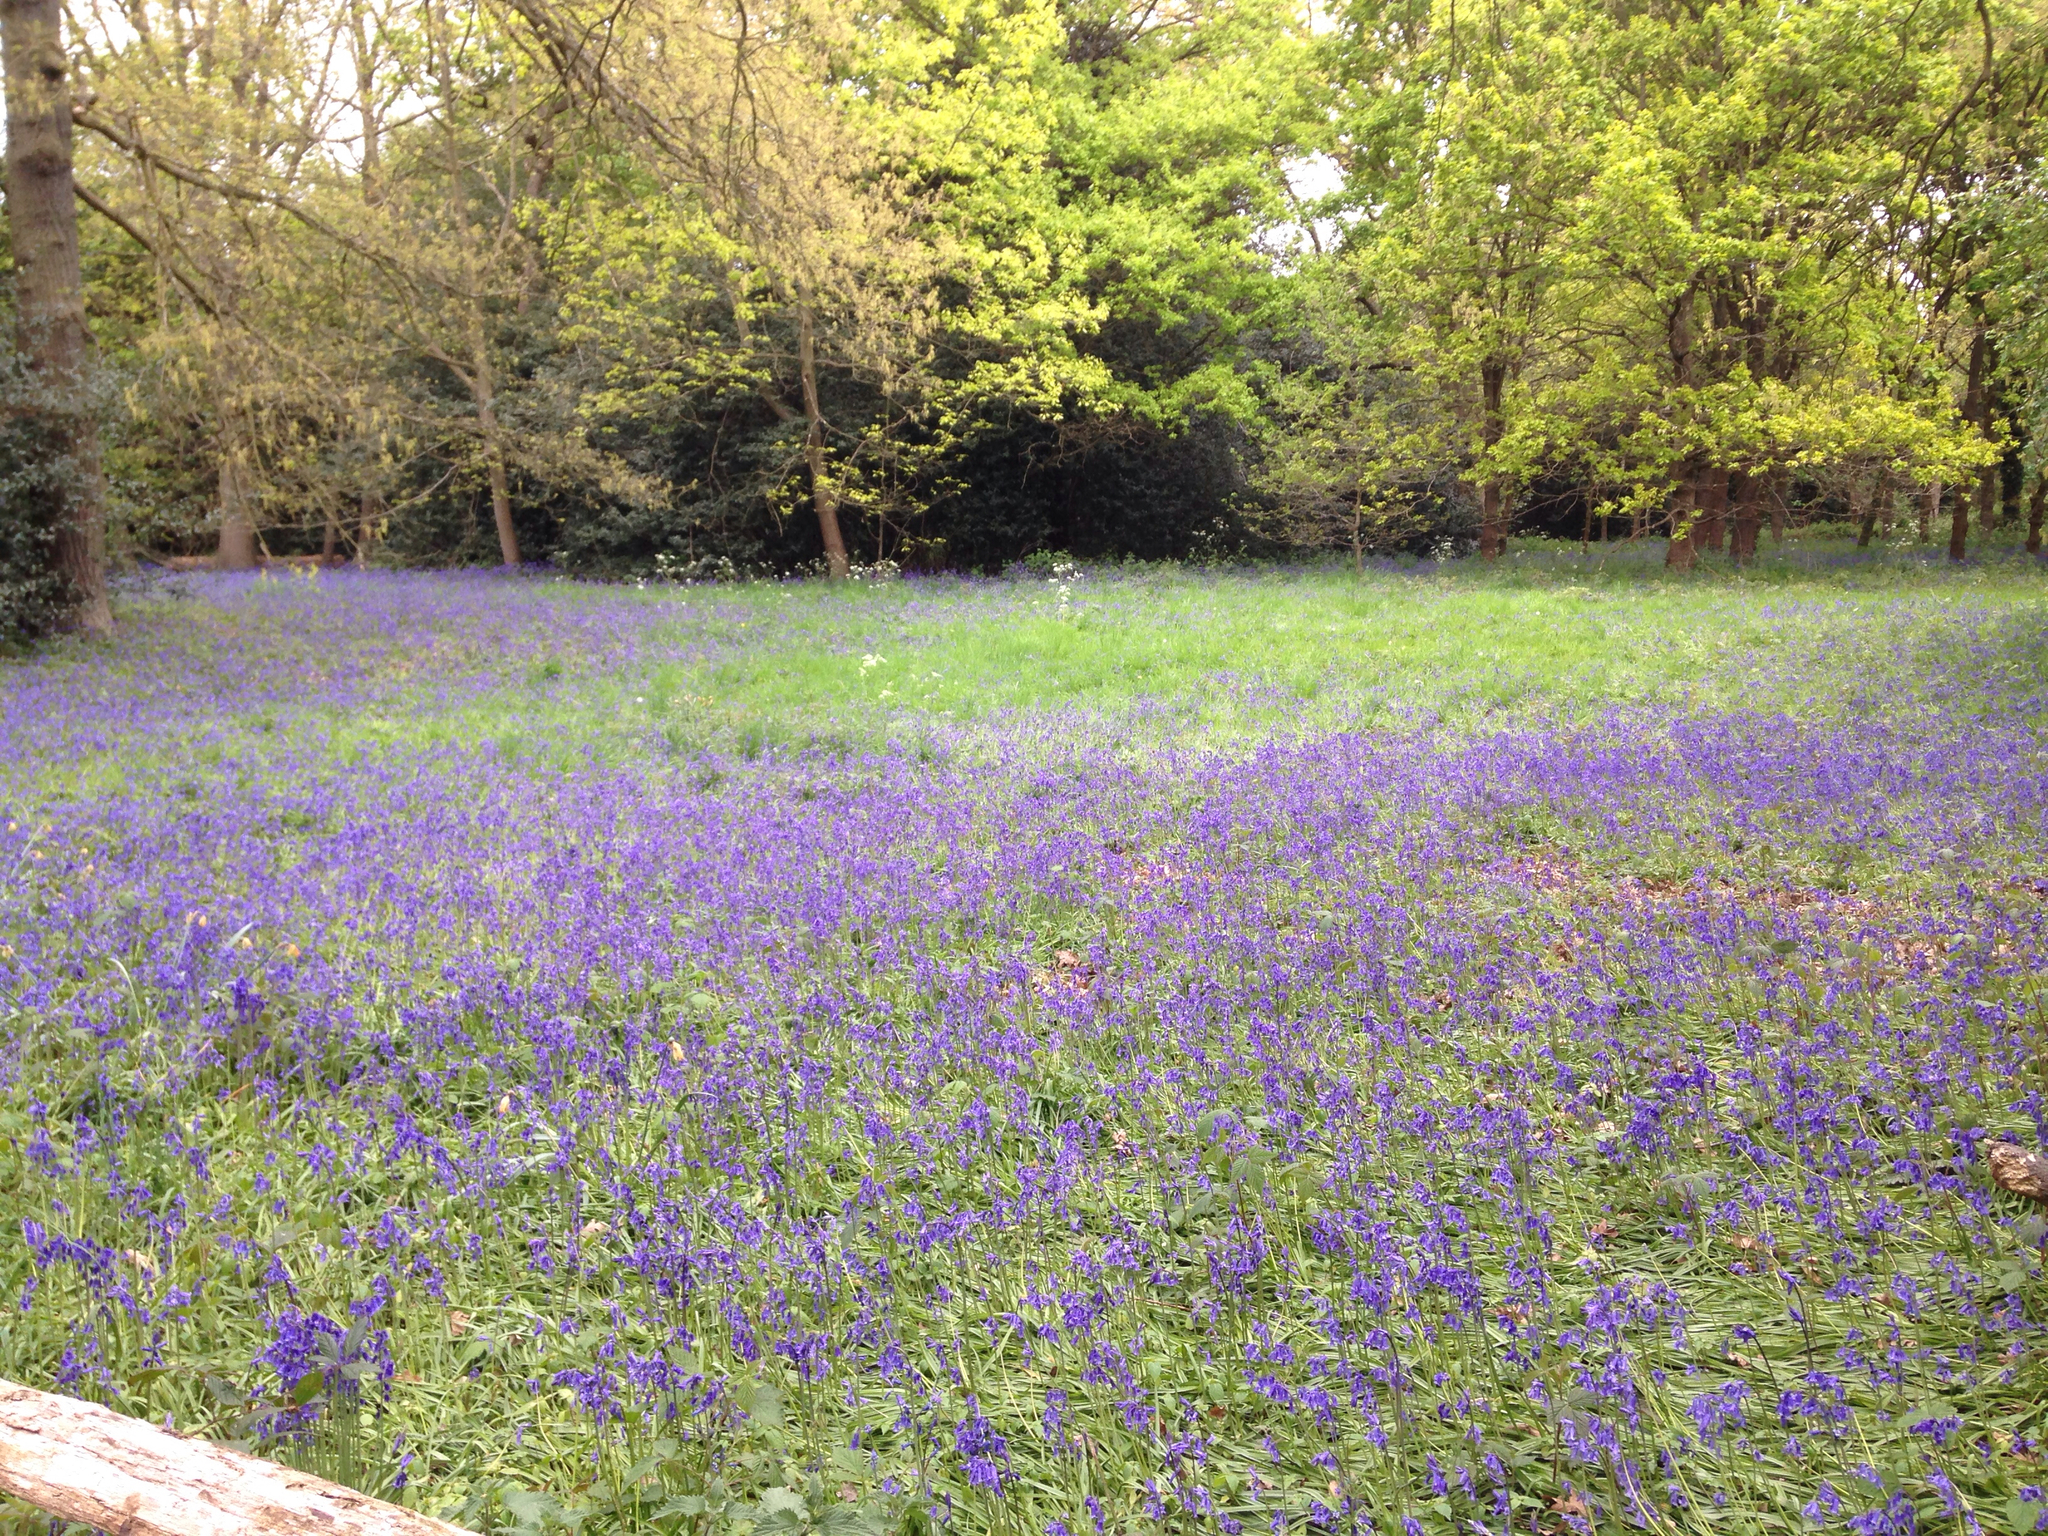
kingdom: Plantae
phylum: Tracheophyta
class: Liliopsida
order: Asparagales
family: Asparagaceae
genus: Hyacinthoides
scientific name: Hyacinthoides non-scripta
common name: Bluebell
